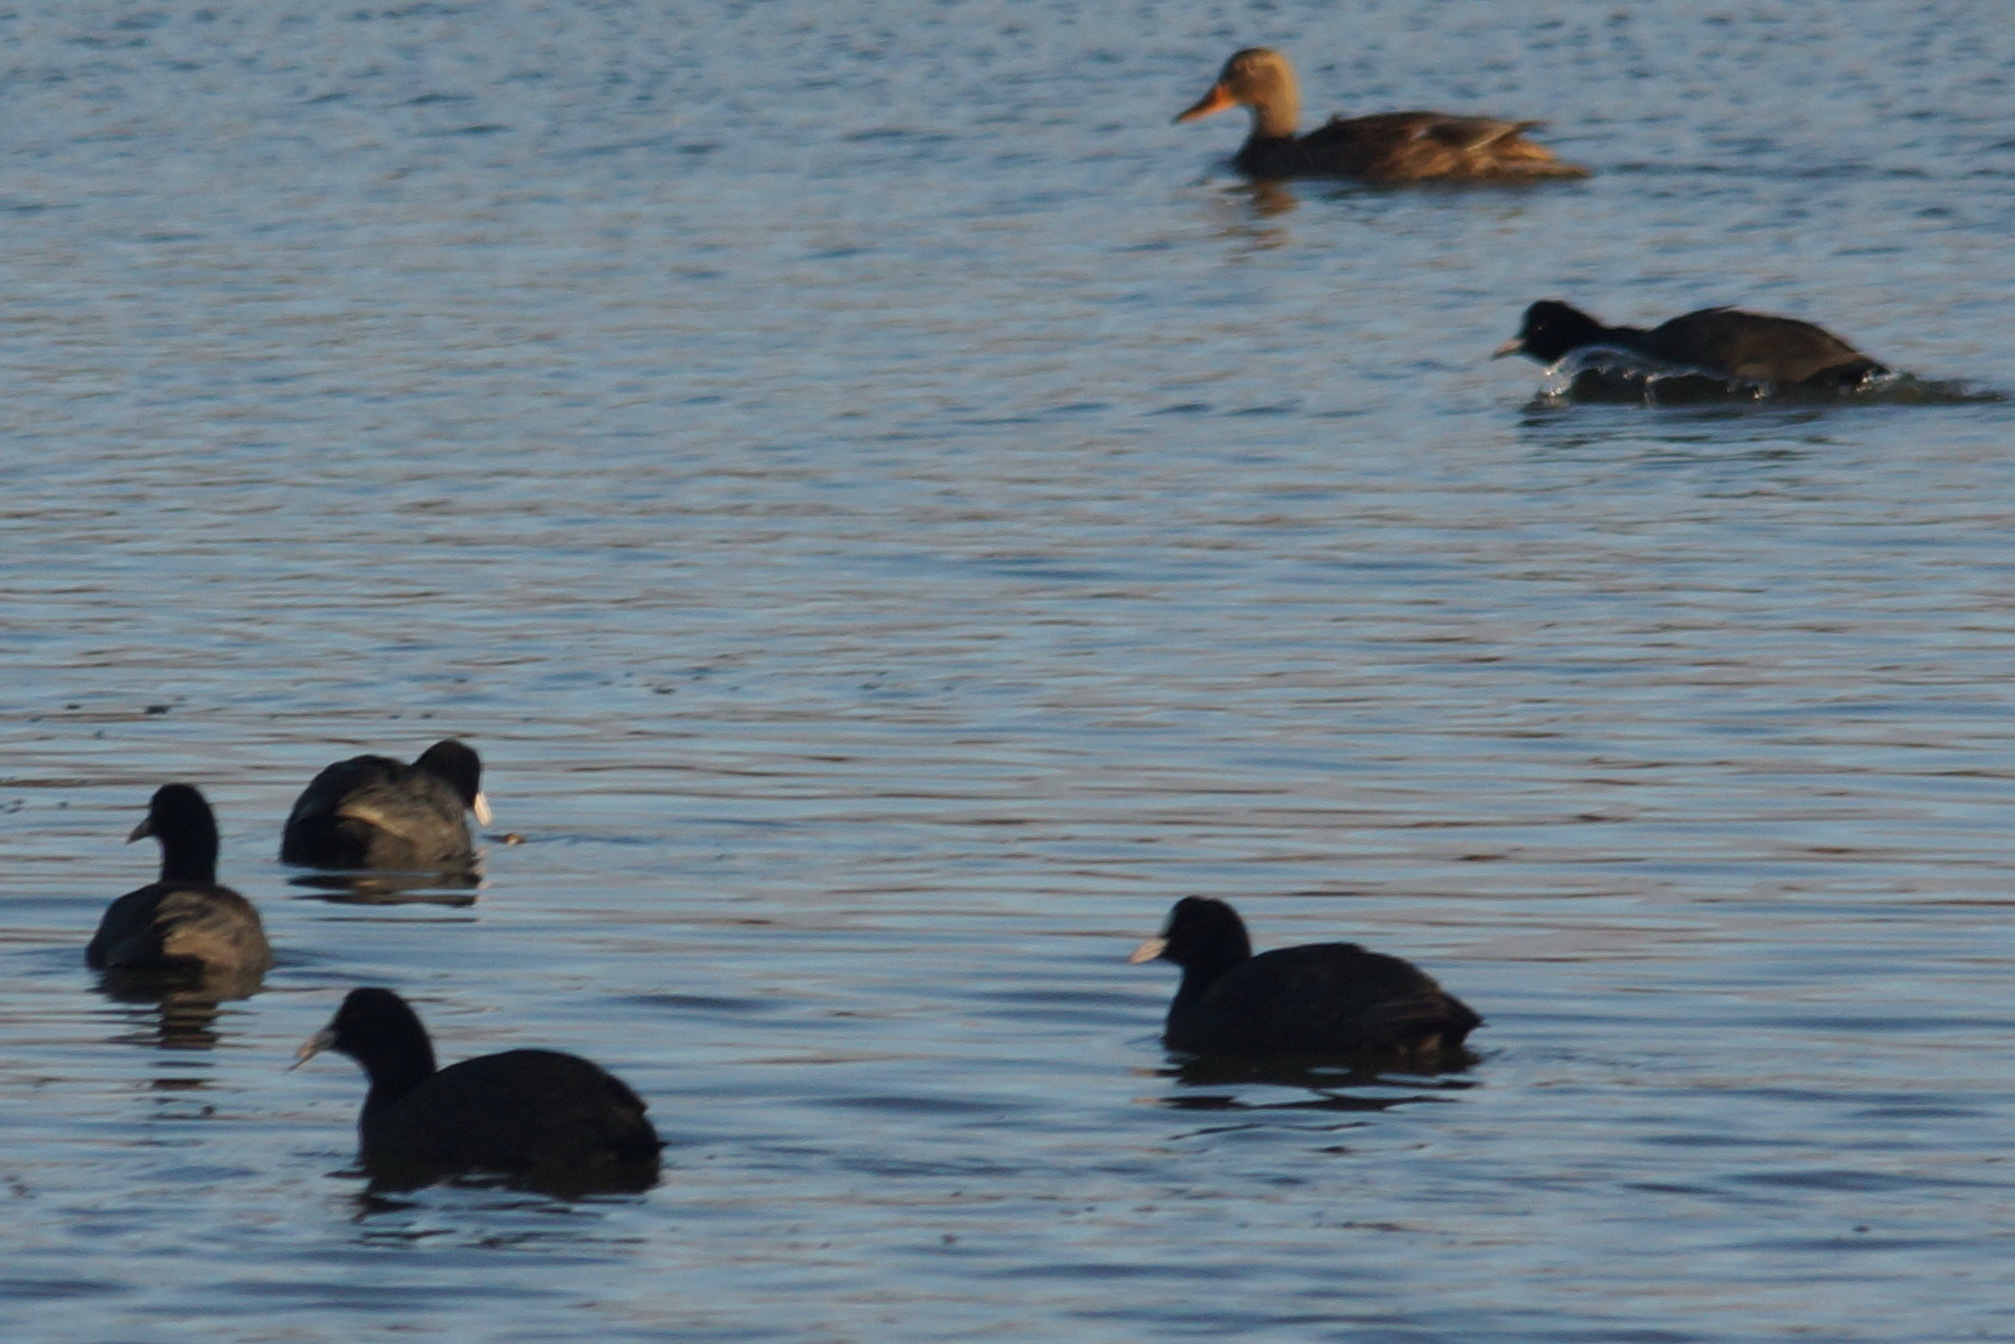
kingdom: Animalia
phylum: Chordata
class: Aves
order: Gruiformes
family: Rallidae
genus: Fulica
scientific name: Fulica atra
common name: Eurasian coot
